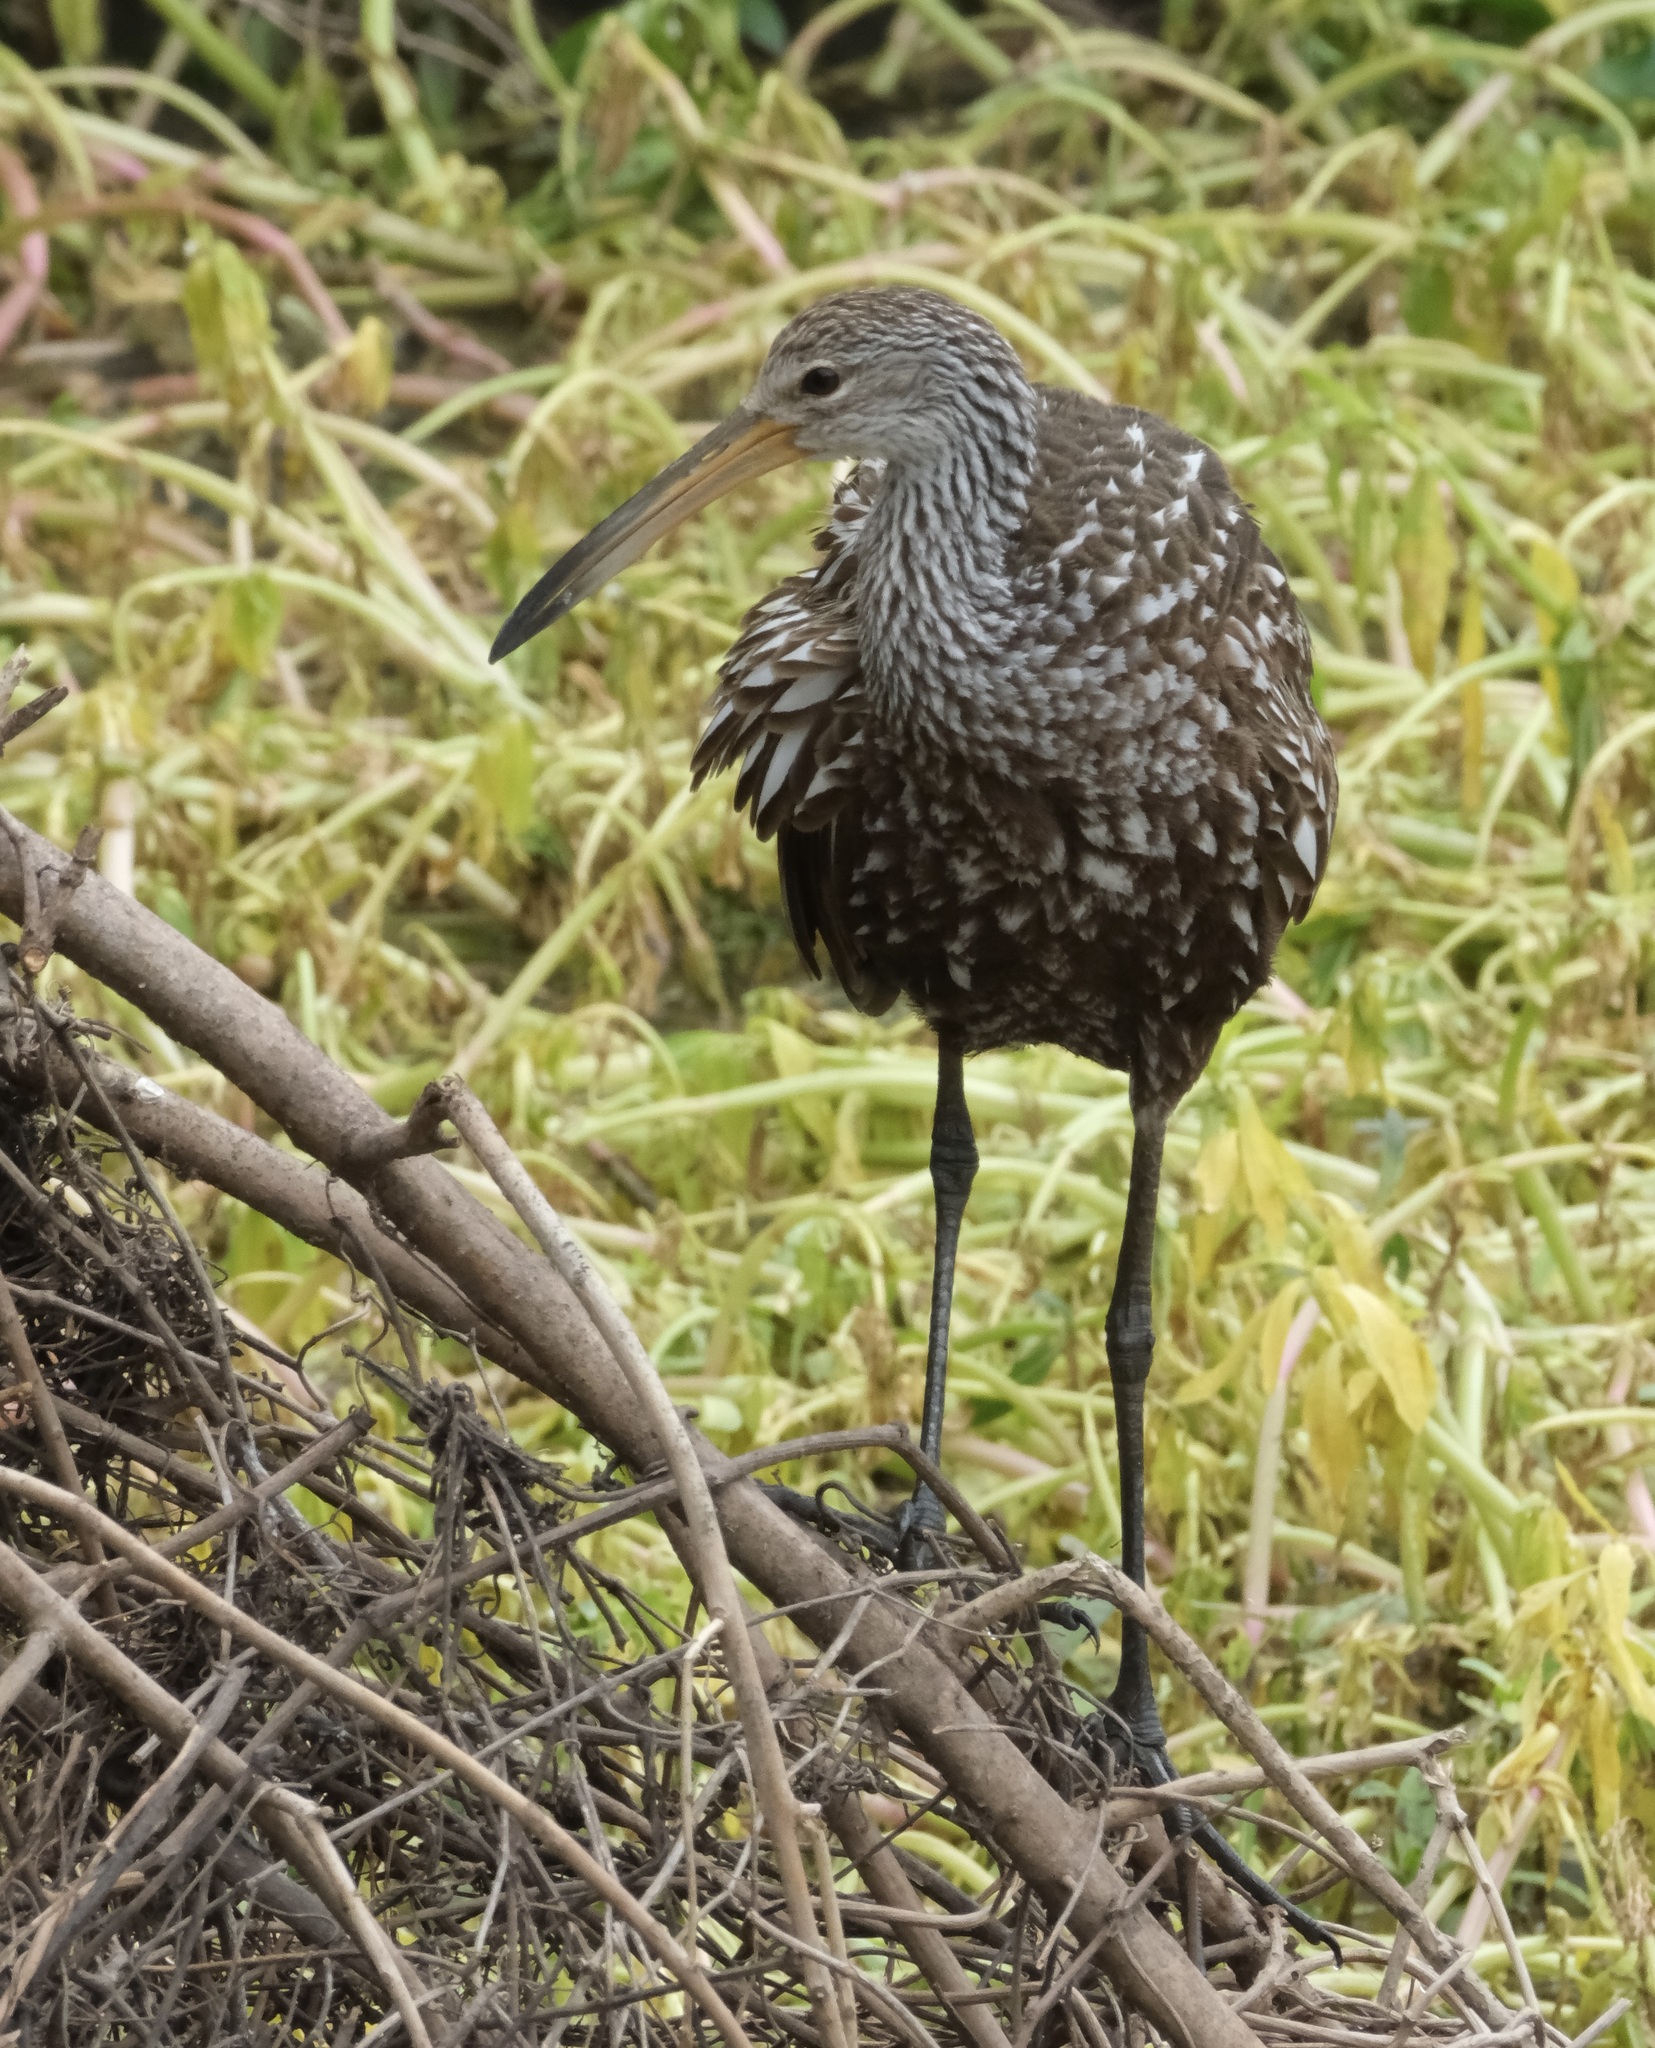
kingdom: Animalia
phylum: Chordata
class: Aves
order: Gruiformes
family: Aramidae
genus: Aramus
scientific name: Aramus guarauna
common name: Limpkin
